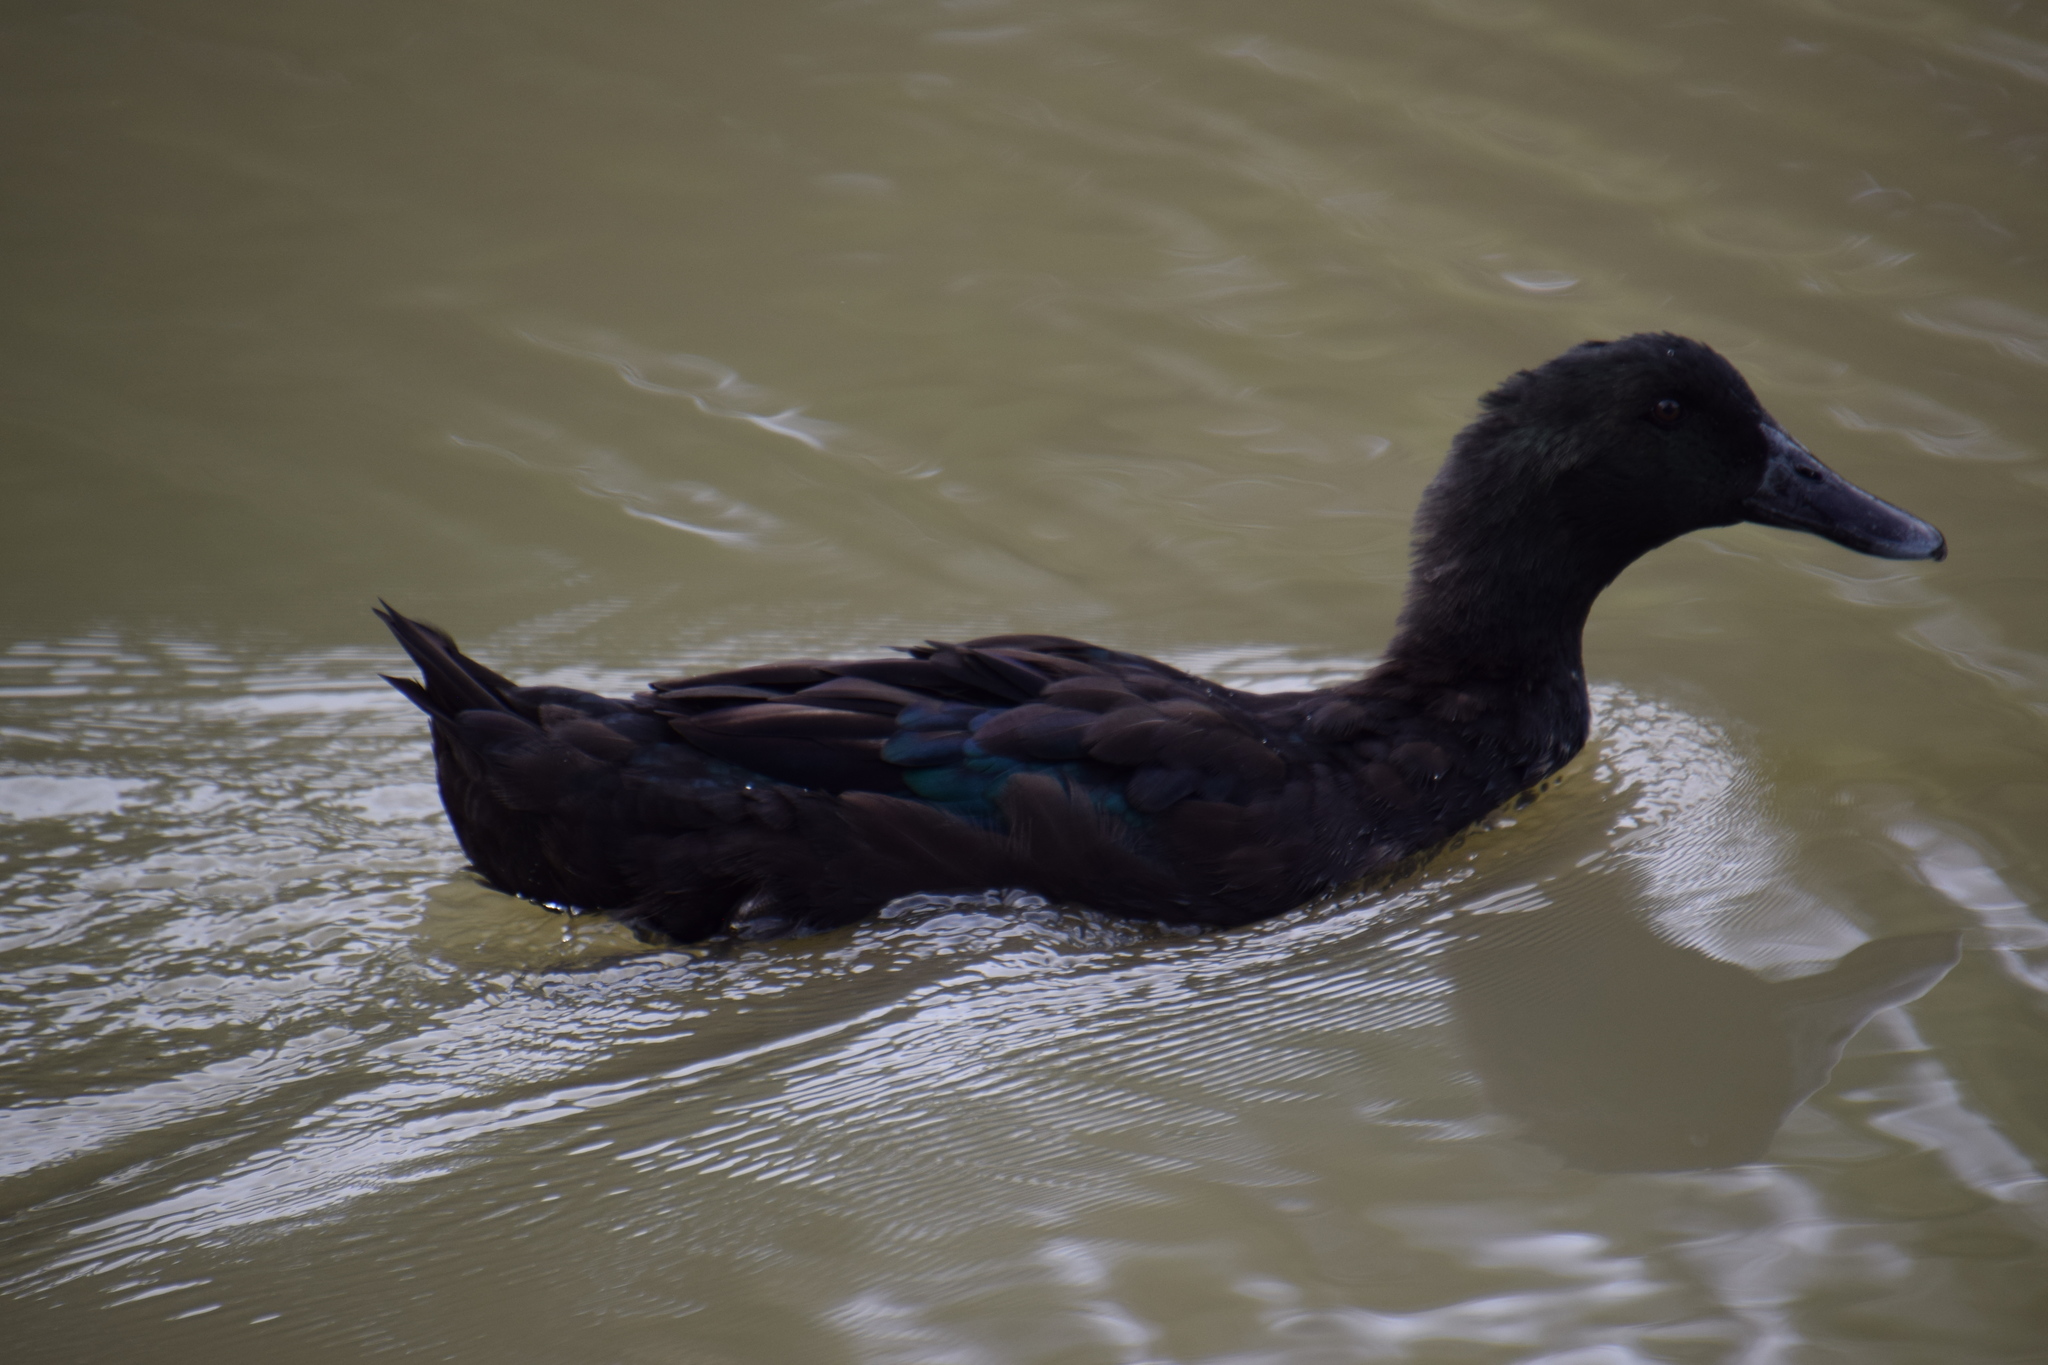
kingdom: Animalia
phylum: Chordata
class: Aves
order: Anseriformes
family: Anatidae
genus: Anas
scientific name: Anas platyrhynchos
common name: Mallard
